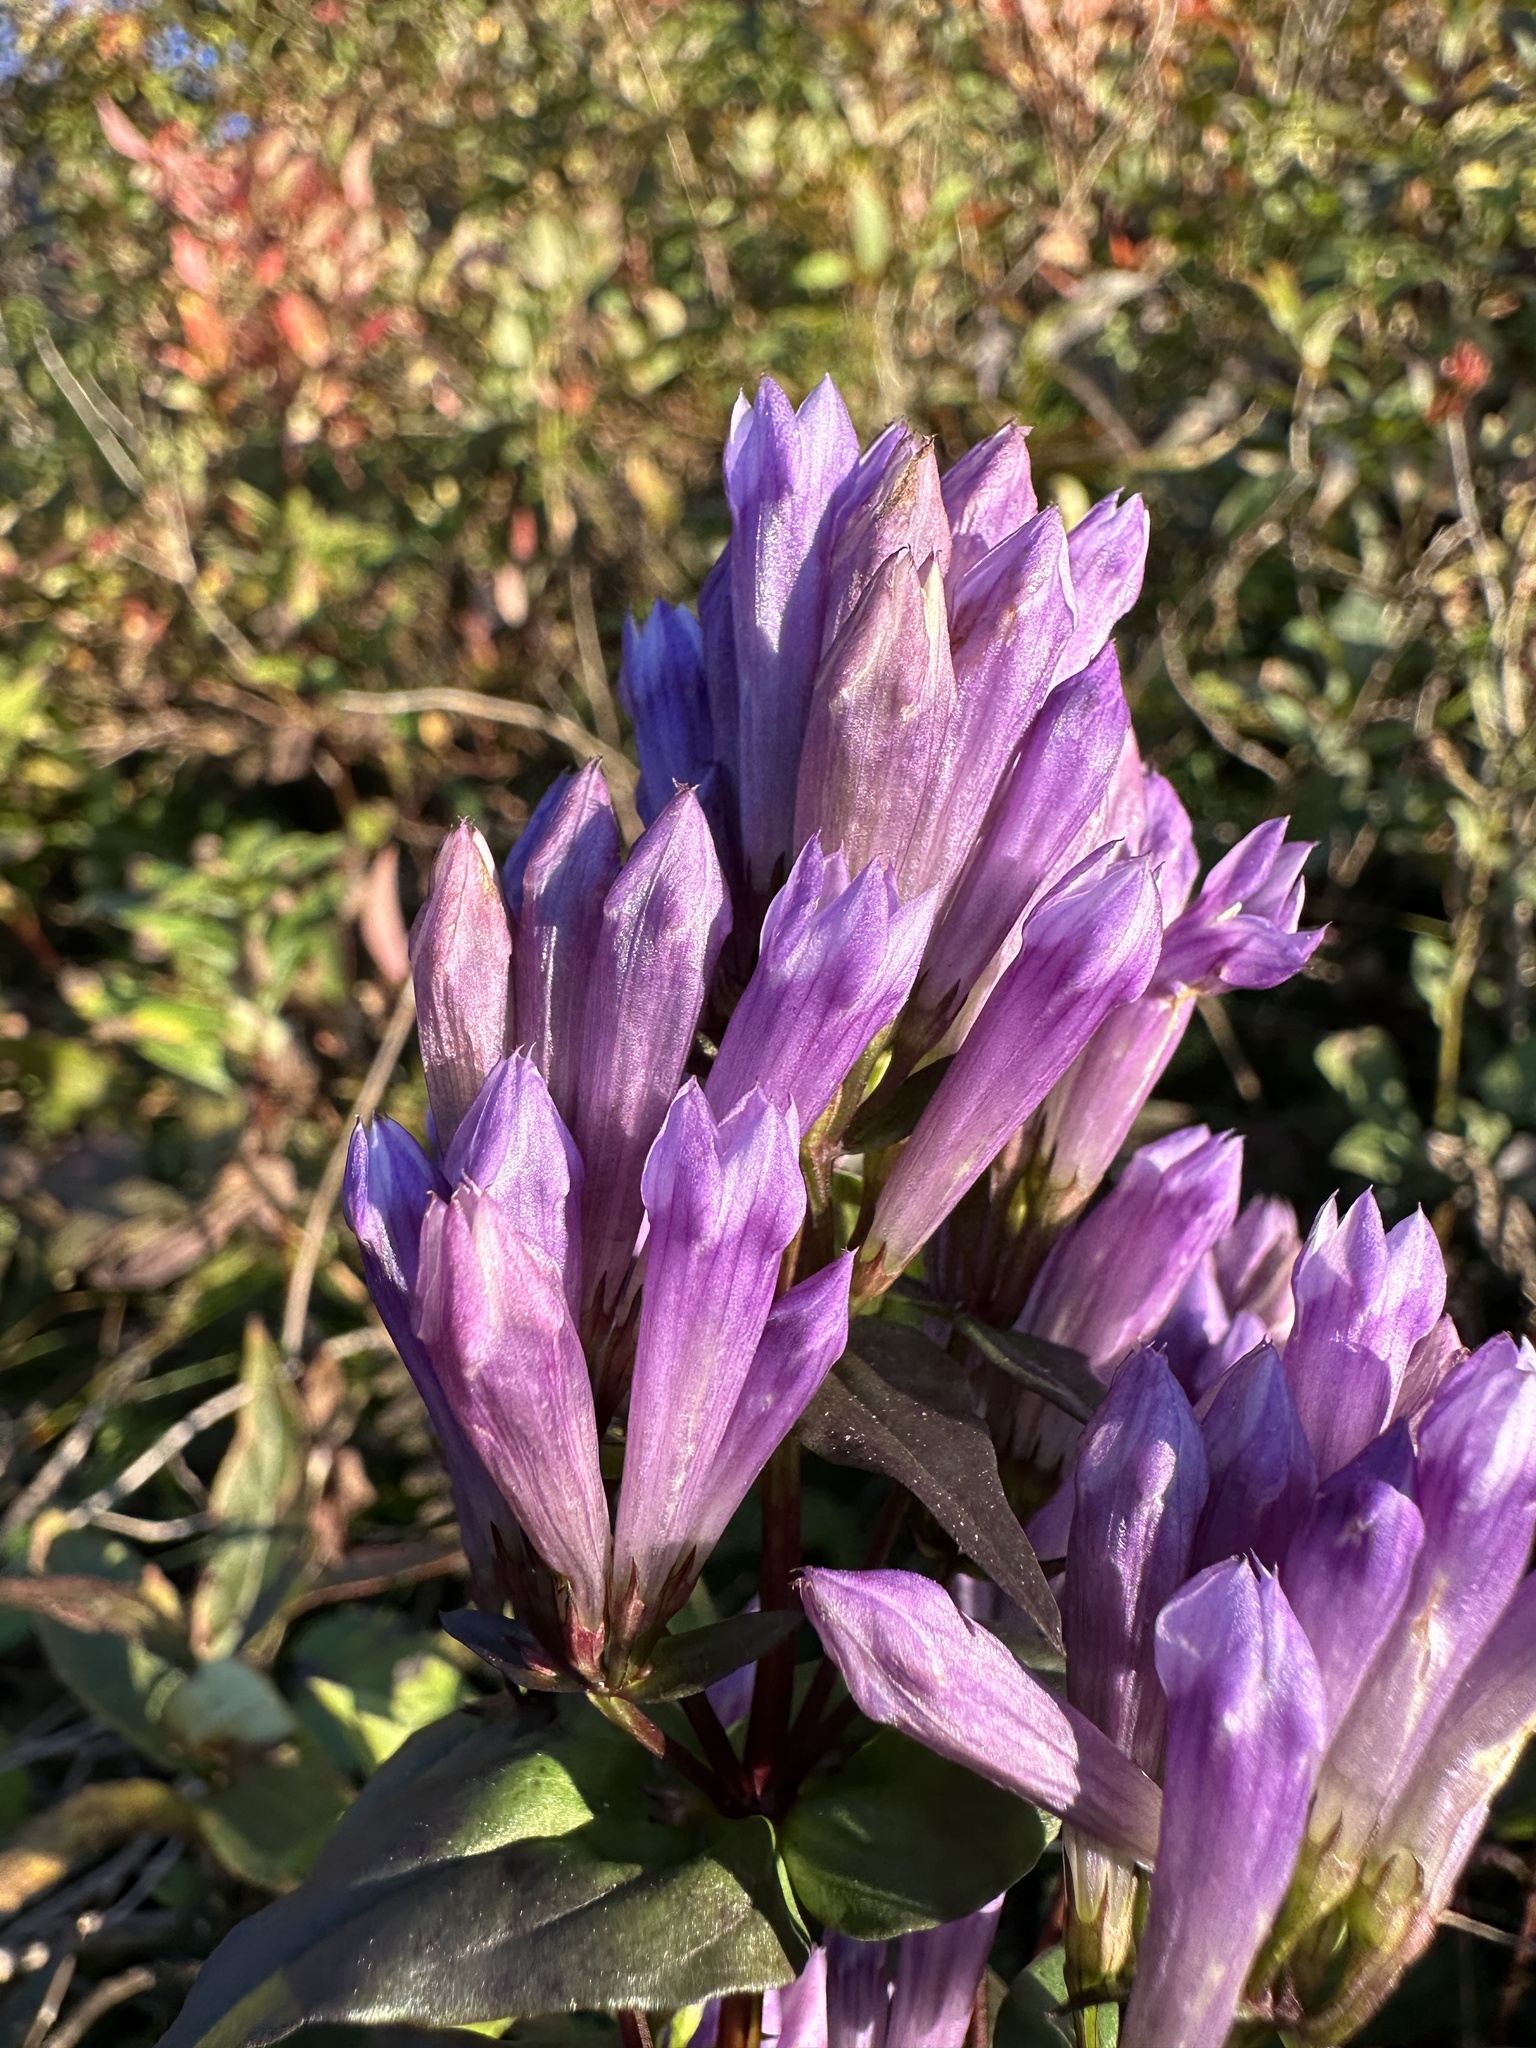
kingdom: Plantae
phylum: Tracheophyta
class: Magnoliopsida
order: Gentianales
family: Gentianaceae
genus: Gentianella
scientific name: Gentianella quinquefolia
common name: Agueweed
